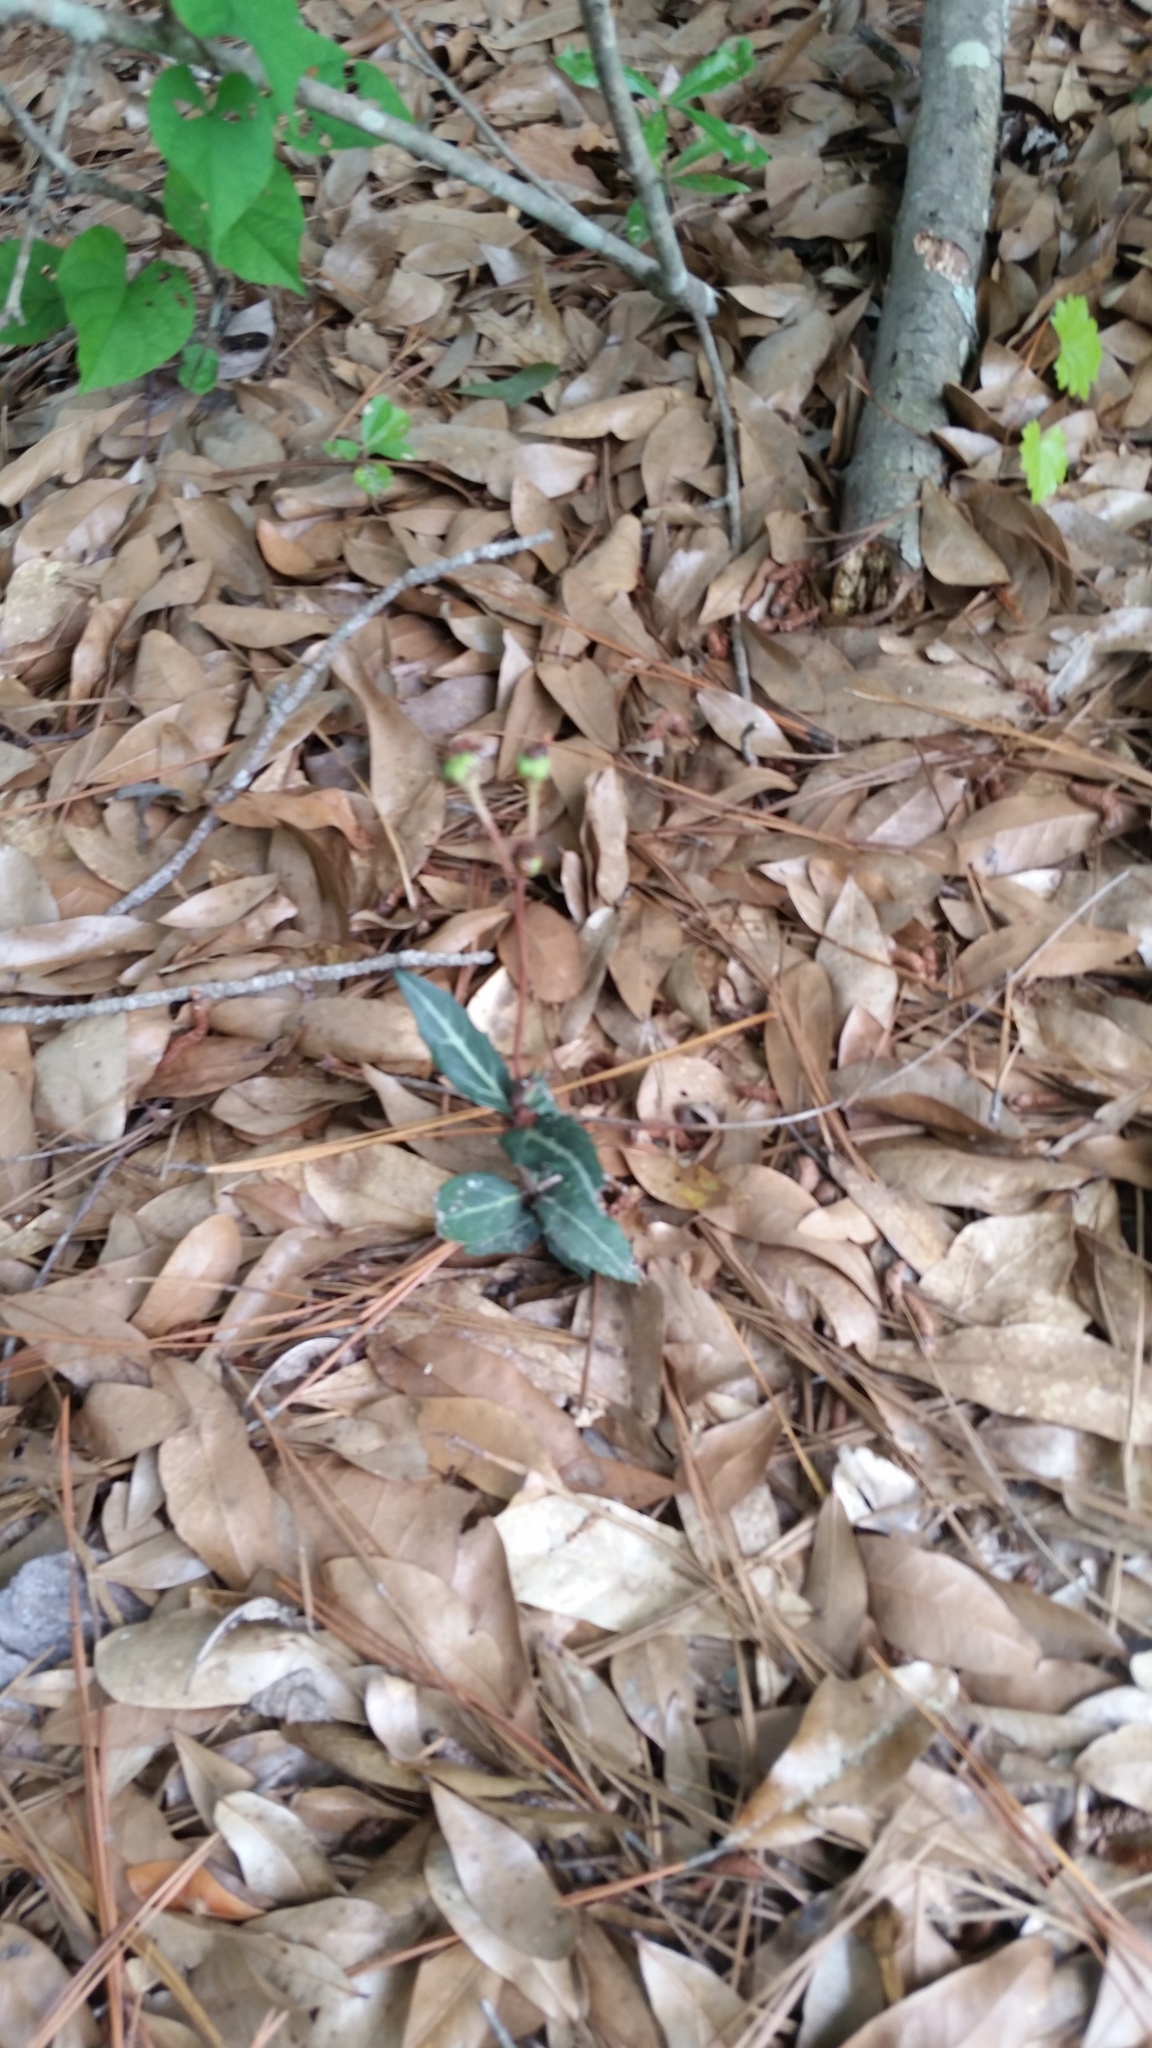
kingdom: Plantae
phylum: Tracheophyta
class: Magnoliopsida
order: Ericales
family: Ericaceae
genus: Chimaphila
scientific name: Chimaphila maculata
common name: Spotted pipsissewa
